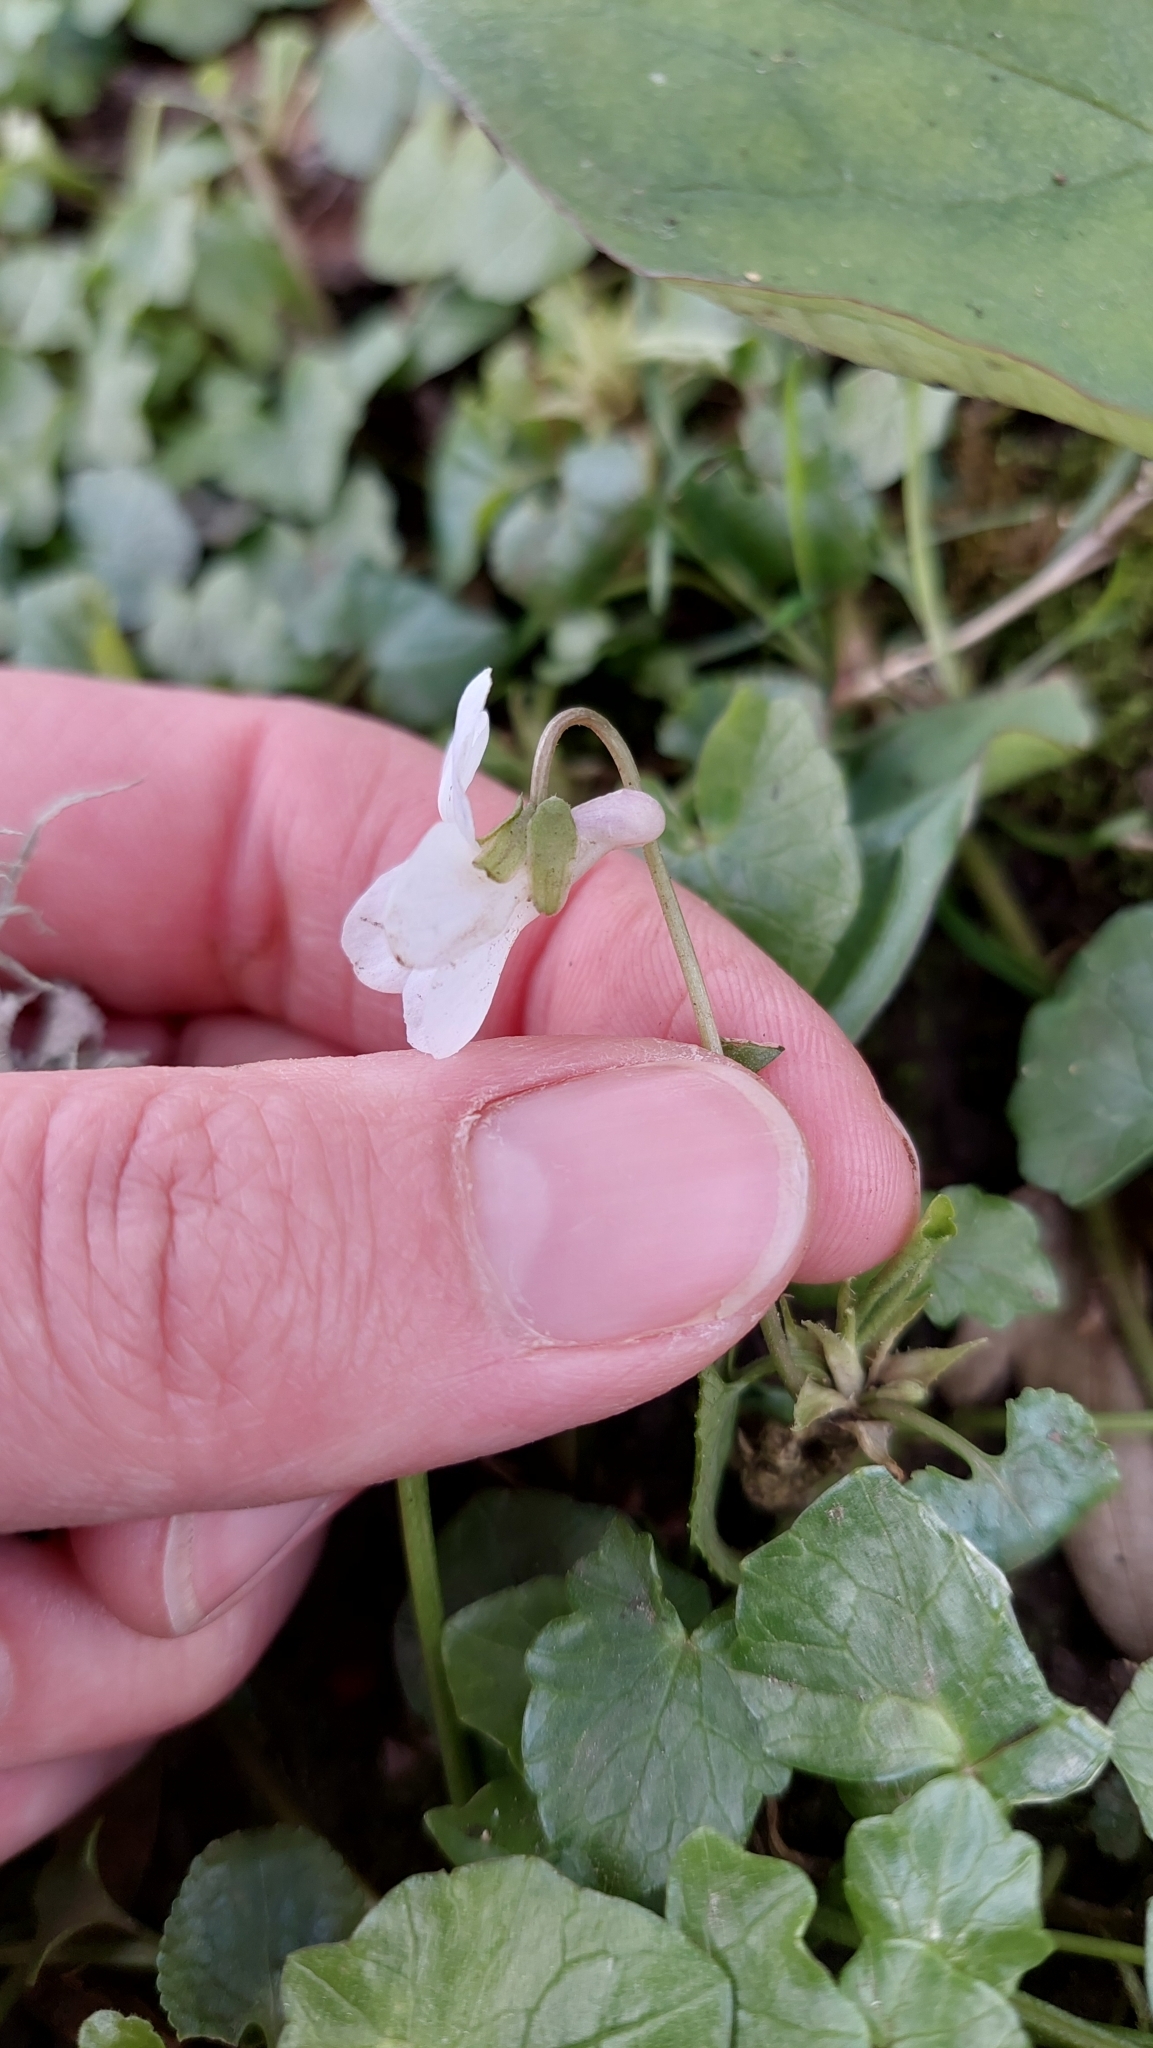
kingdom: Plantae
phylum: Tracheophyta
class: Magnoliopsida
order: Malpighiales
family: Violaceae
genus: Viola
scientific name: Viola odorata
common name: Sweet violet
